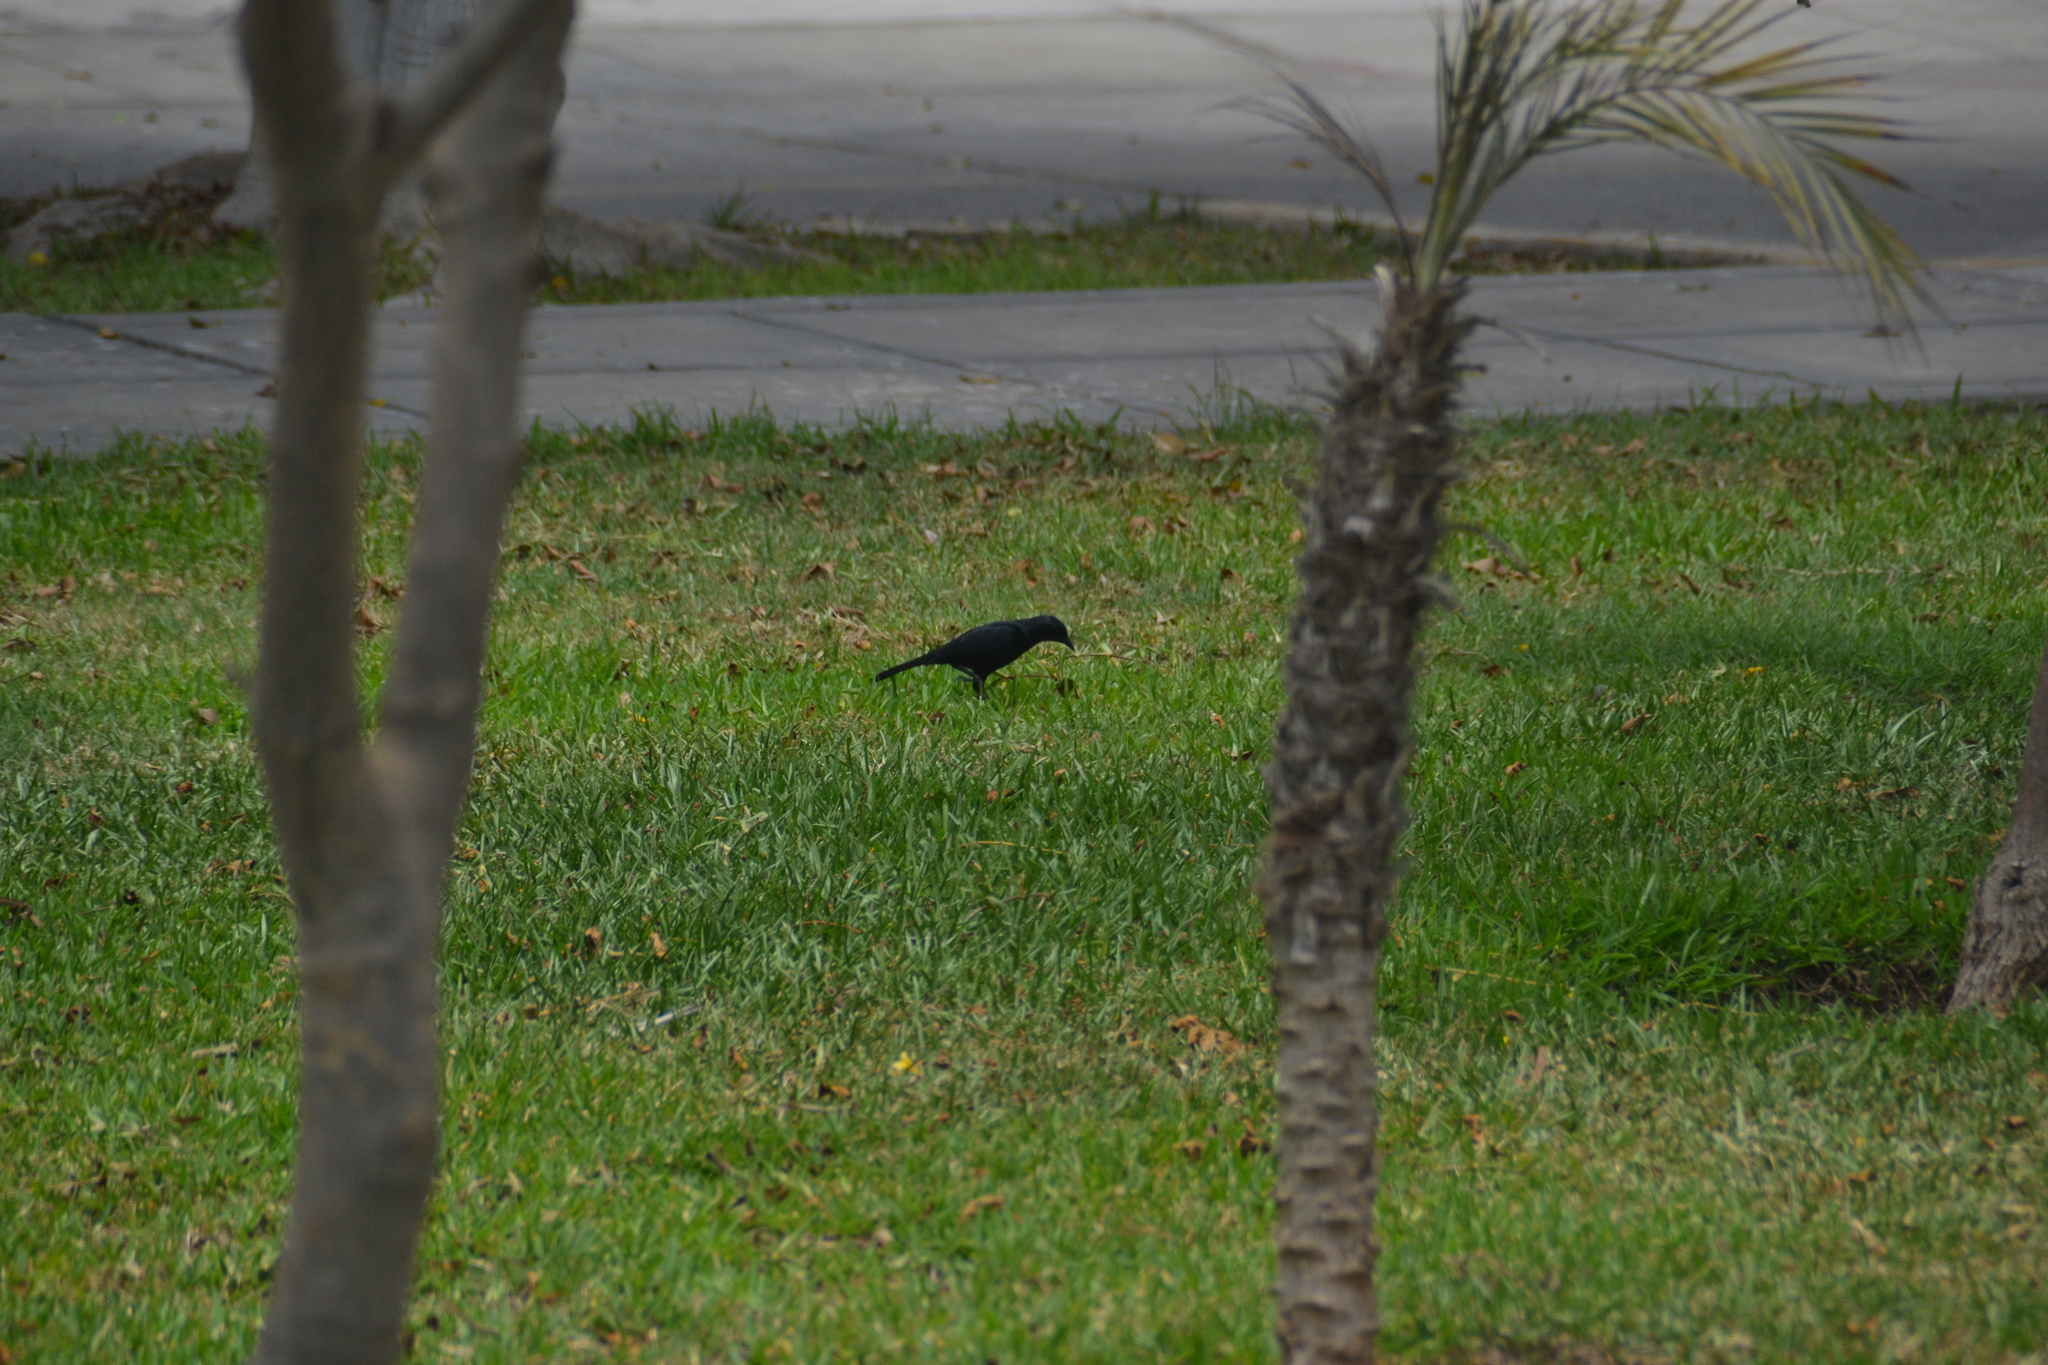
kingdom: Animalia
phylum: Chordata
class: Aves
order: Passeriformes
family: Icteridae
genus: Molothrus
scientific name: Molothrus bonariensis
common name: Shiny cowbird
